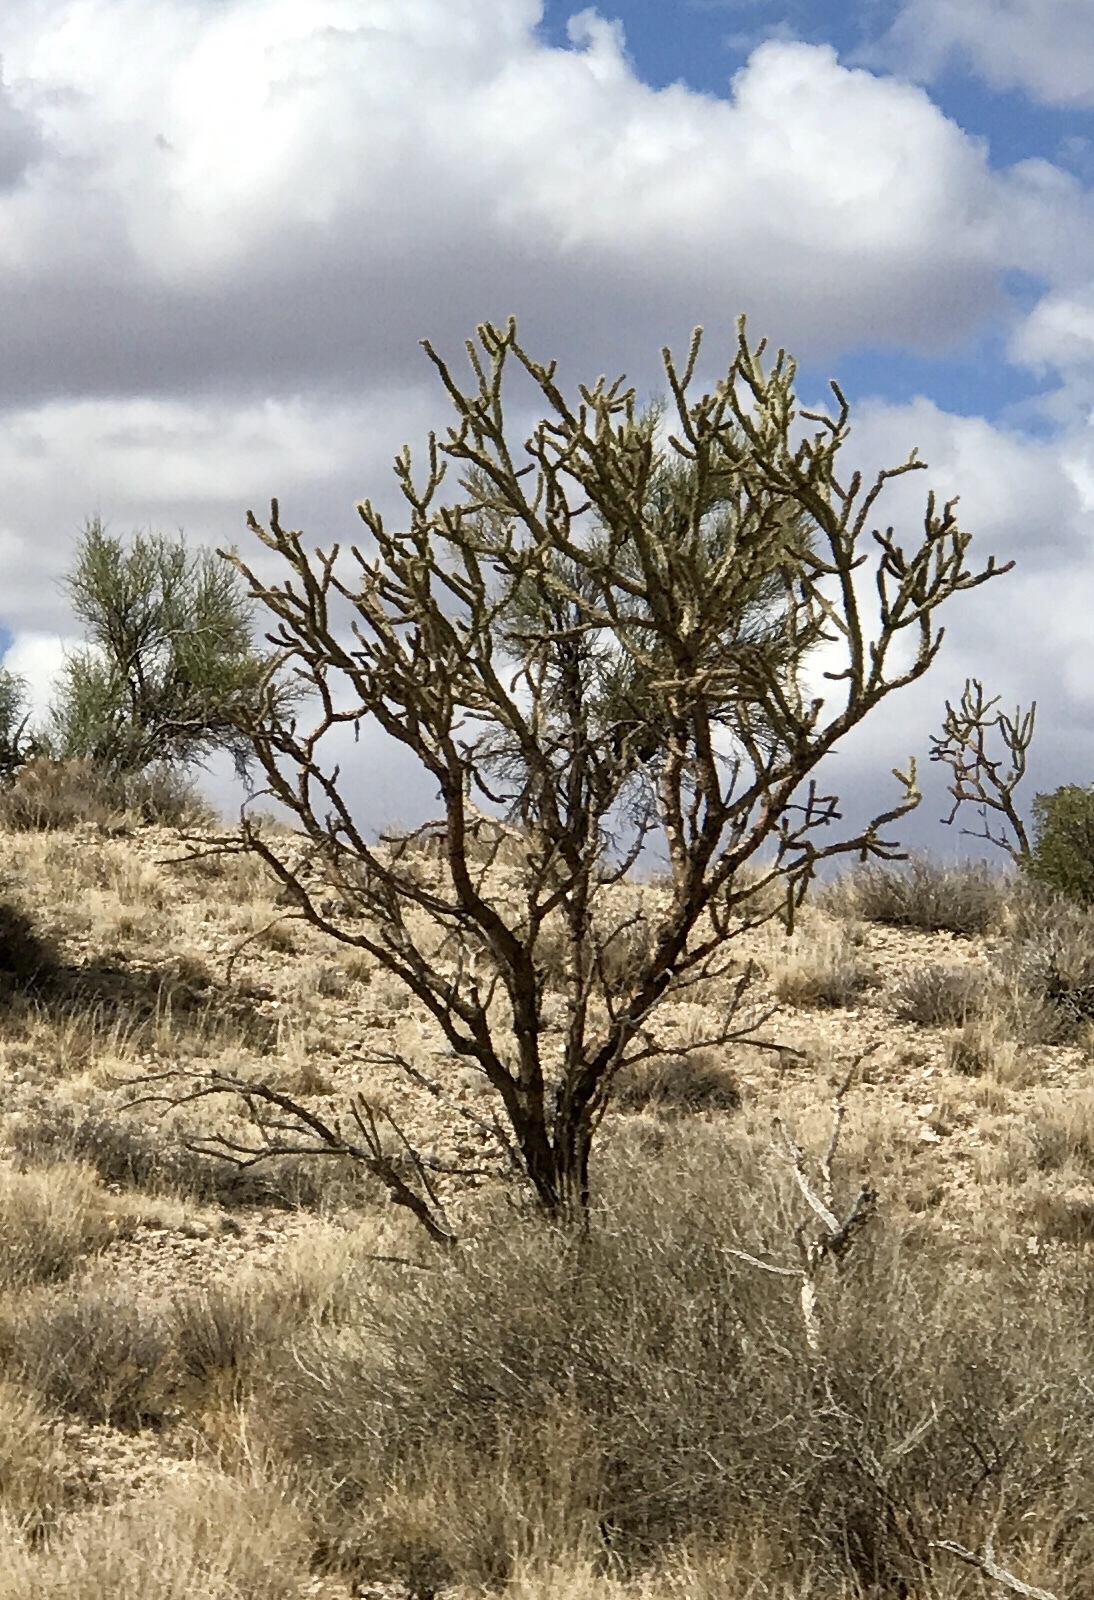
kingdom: Plantae
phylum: Tracheophyta
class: Magnoliopsida
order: Caryophyllales
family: Cactaceae
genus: Cylindropuntia
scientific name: Cylindropuntia acanthocarpa
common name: Buckhorn cholla
